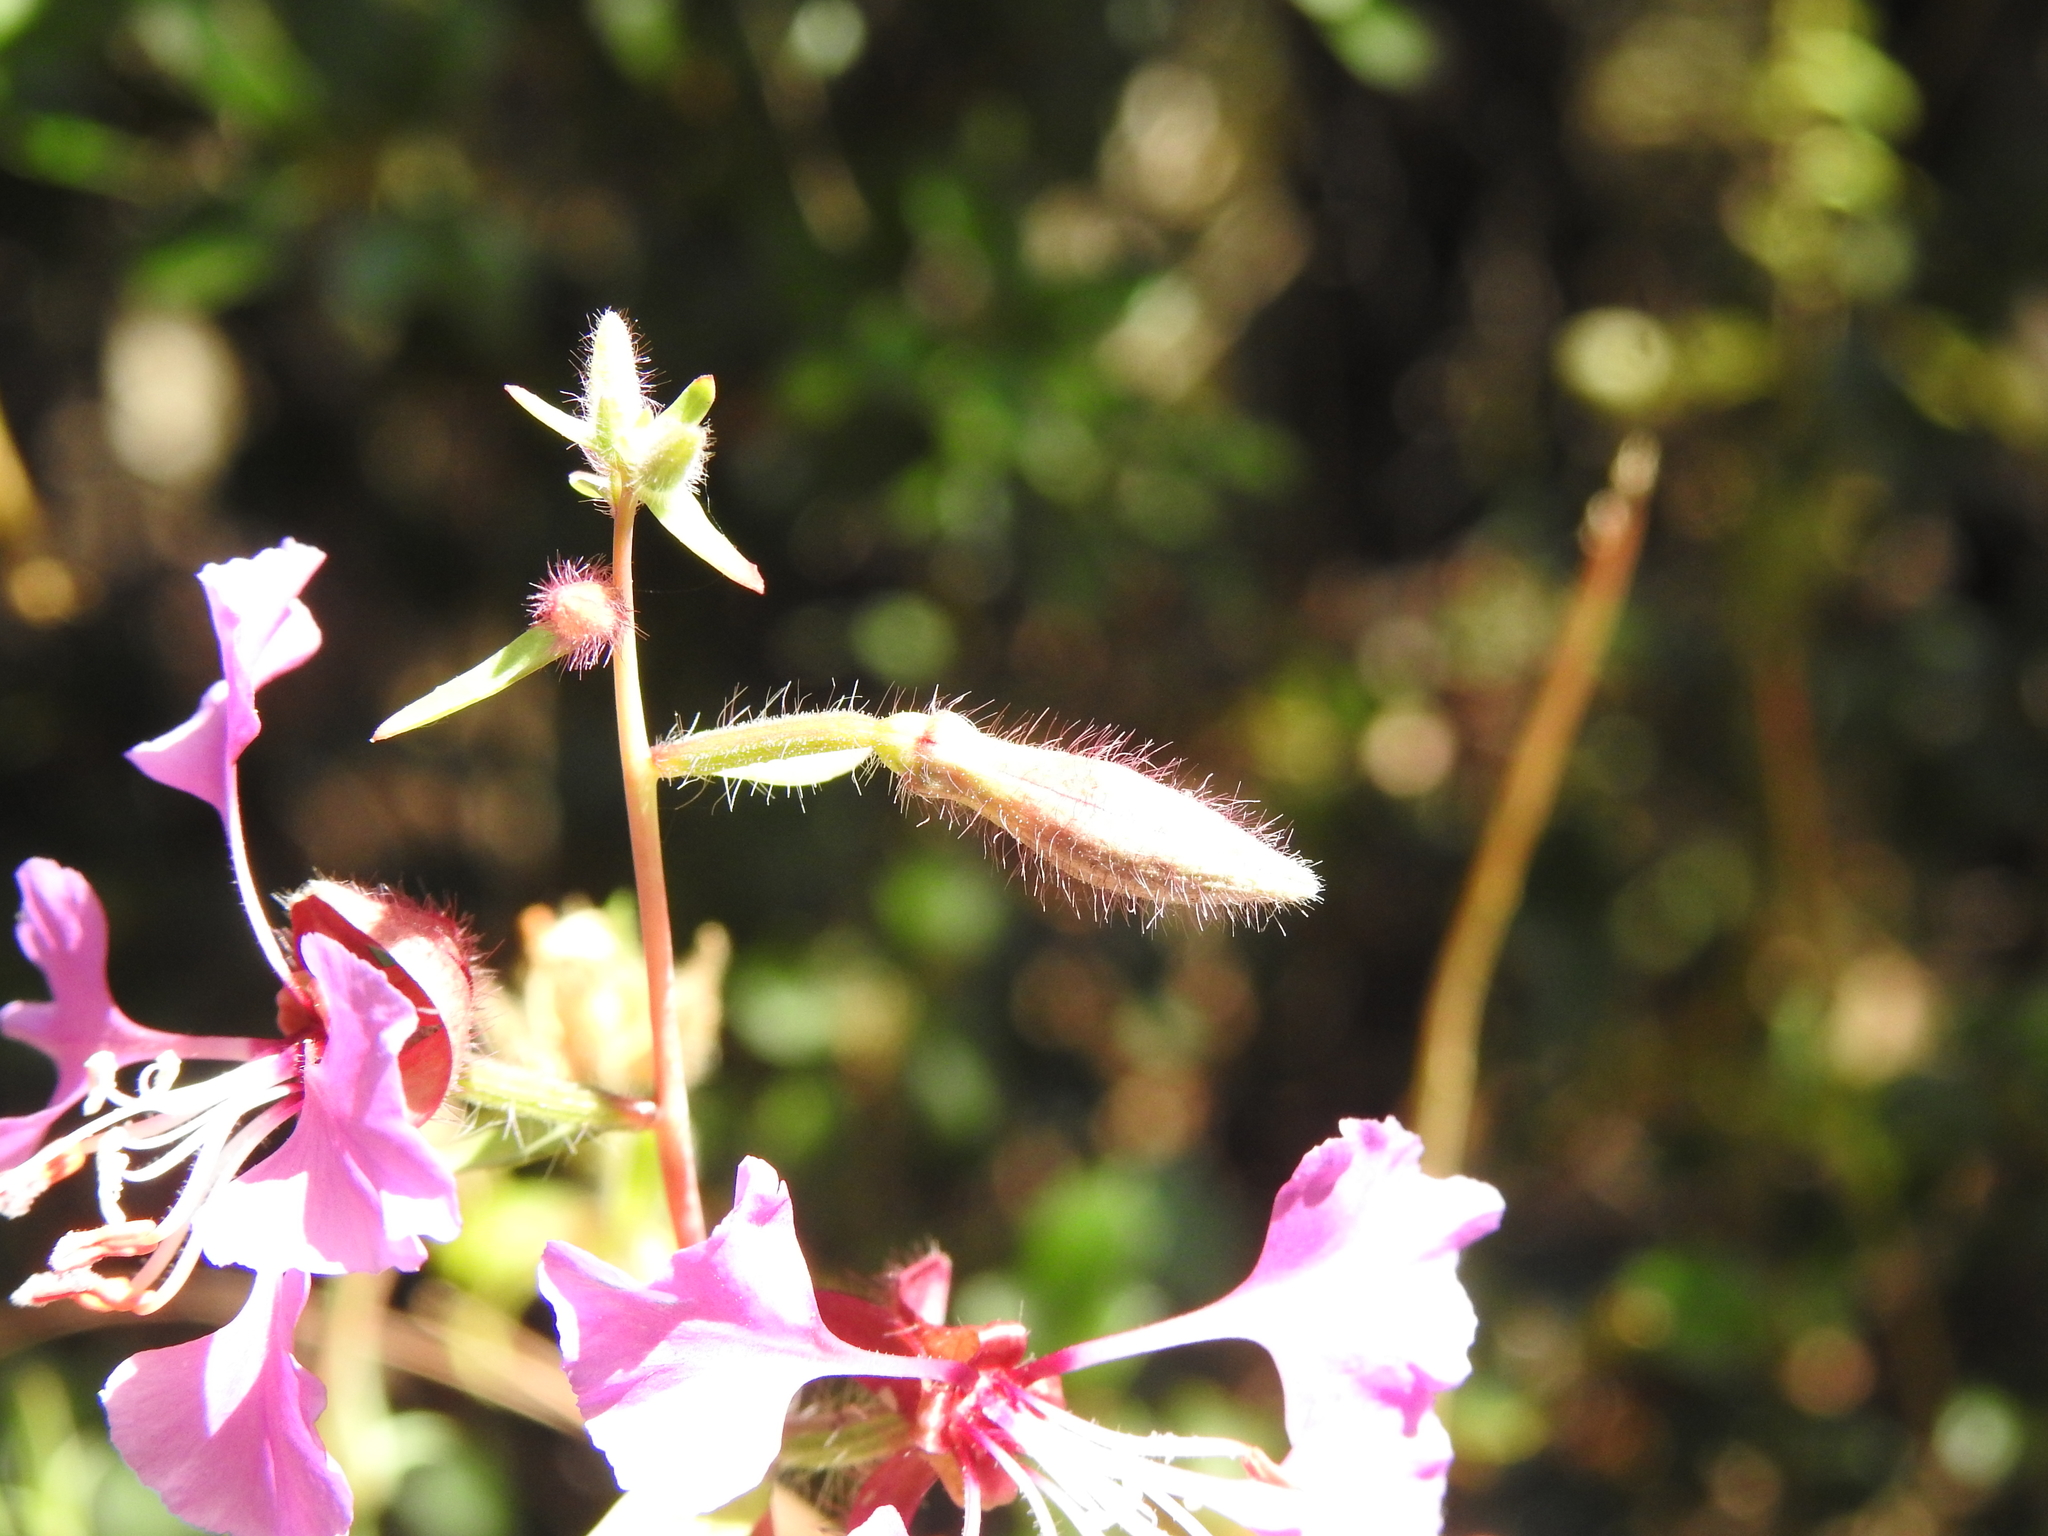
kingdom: Plantae
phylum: Tracheophyta
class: Magnoliopsida
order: Myrtales
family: Onagraceae
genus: Clarkia
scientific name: Clarkia unguiculata
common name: Clarkia
